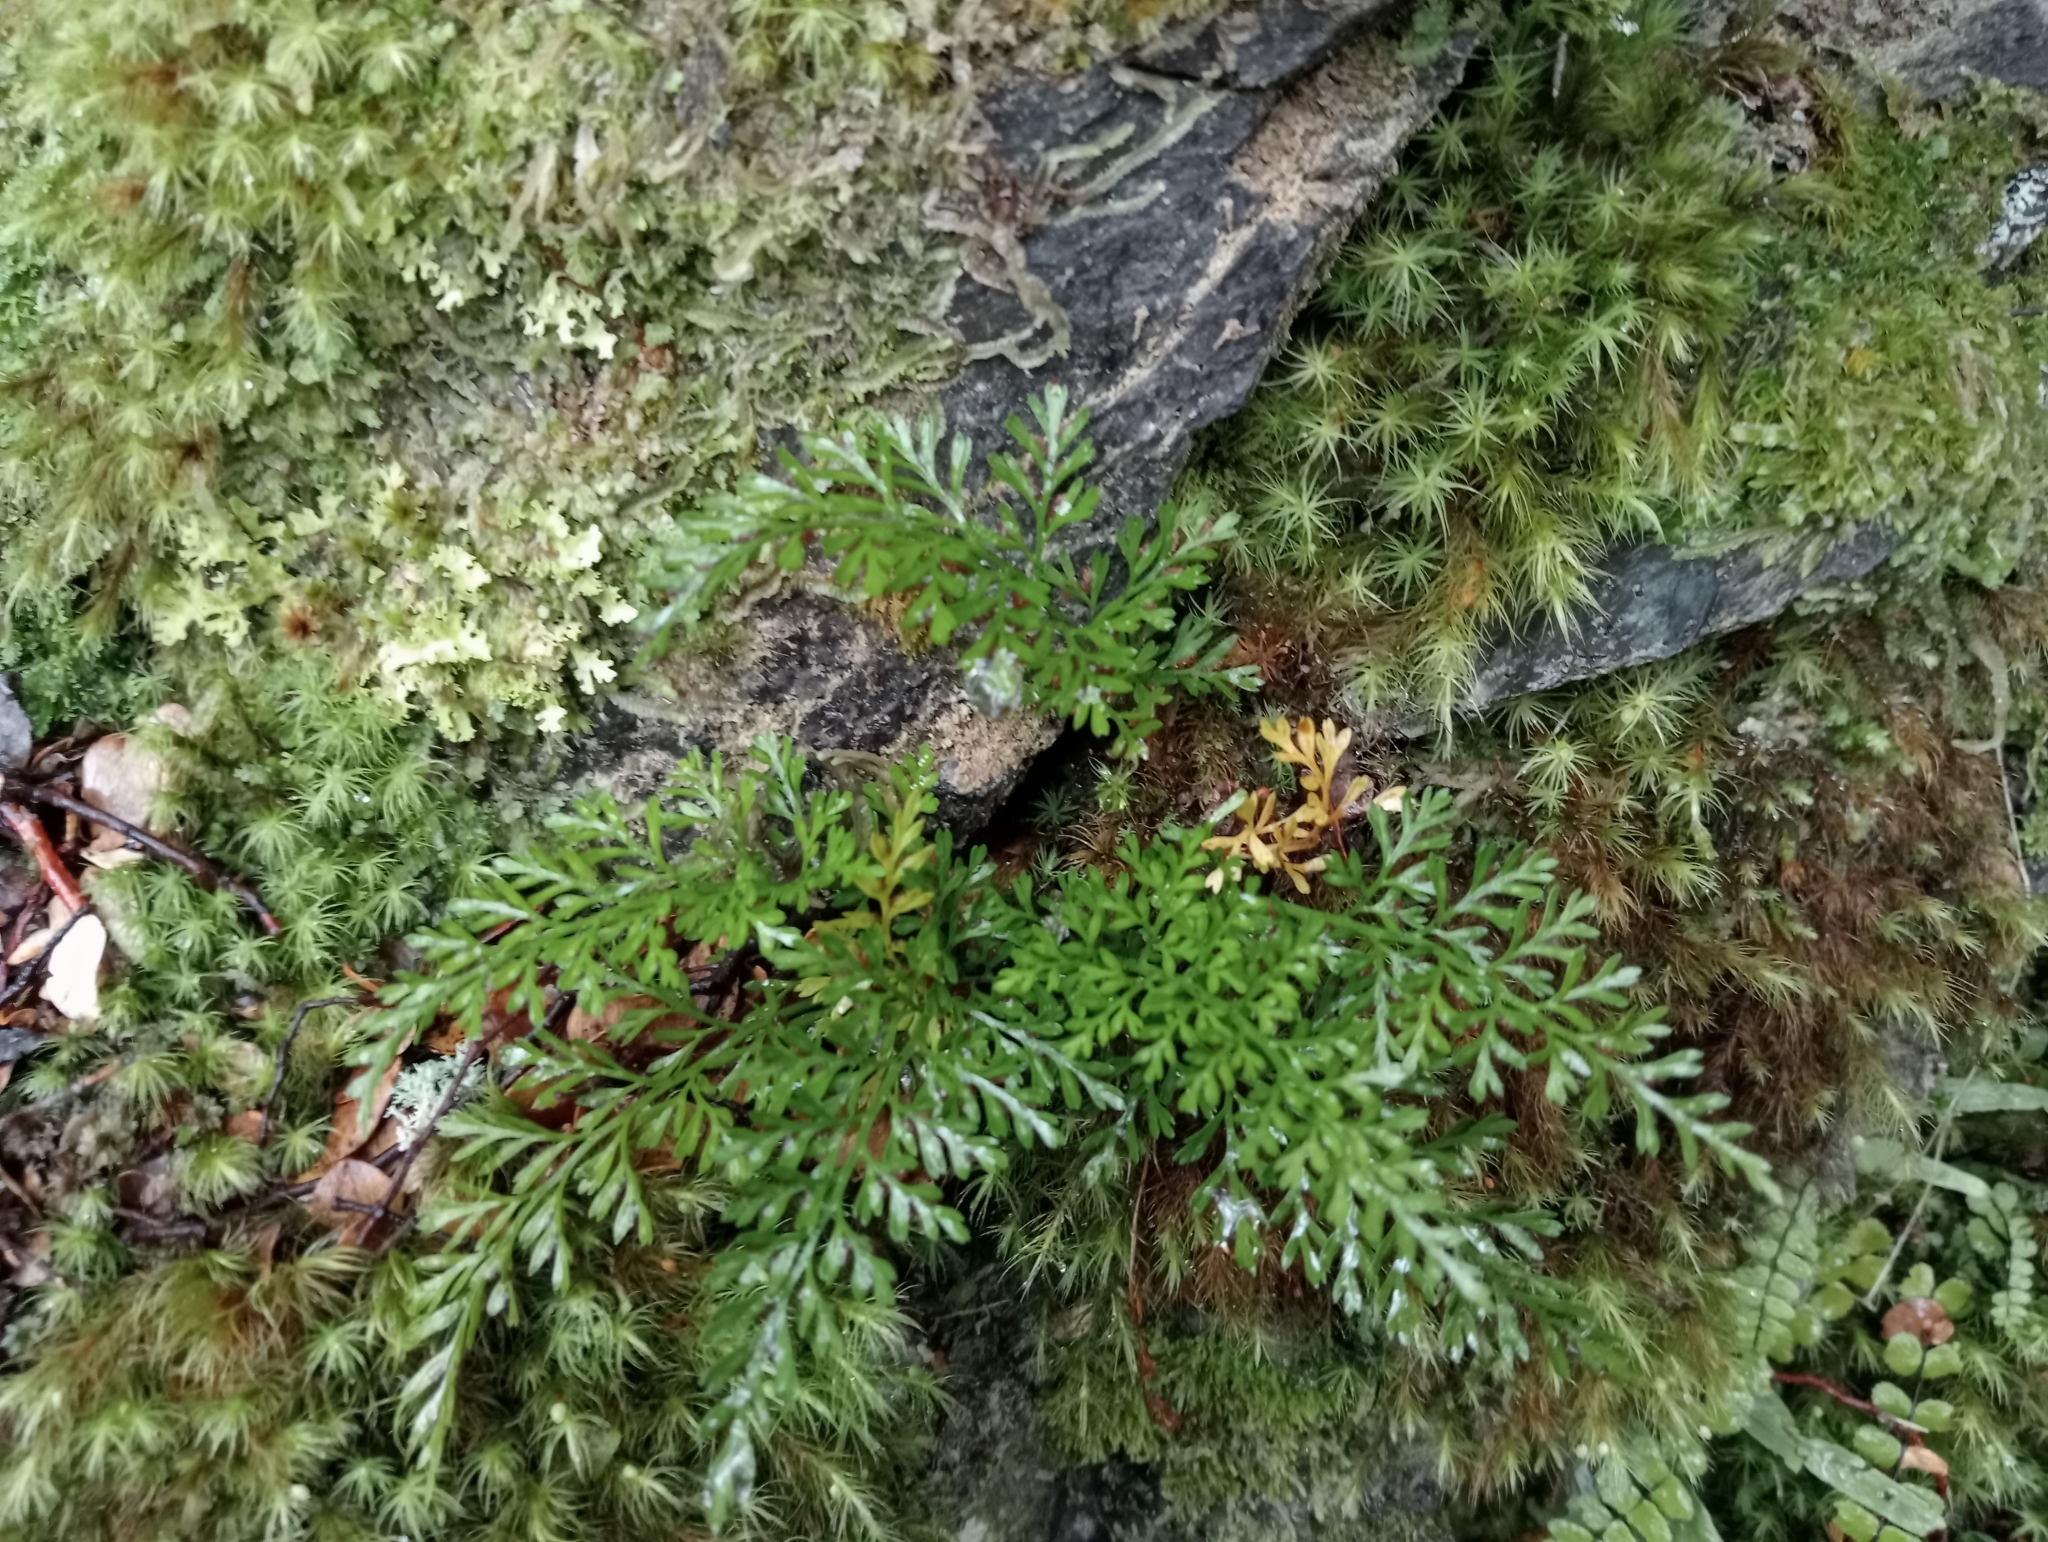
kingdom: Plantae
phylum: Tracheophyta
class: Polypodiopsida
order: Polypodiales
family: Aspleniaceae
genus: Asplenium
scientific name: Asplenium richardii
